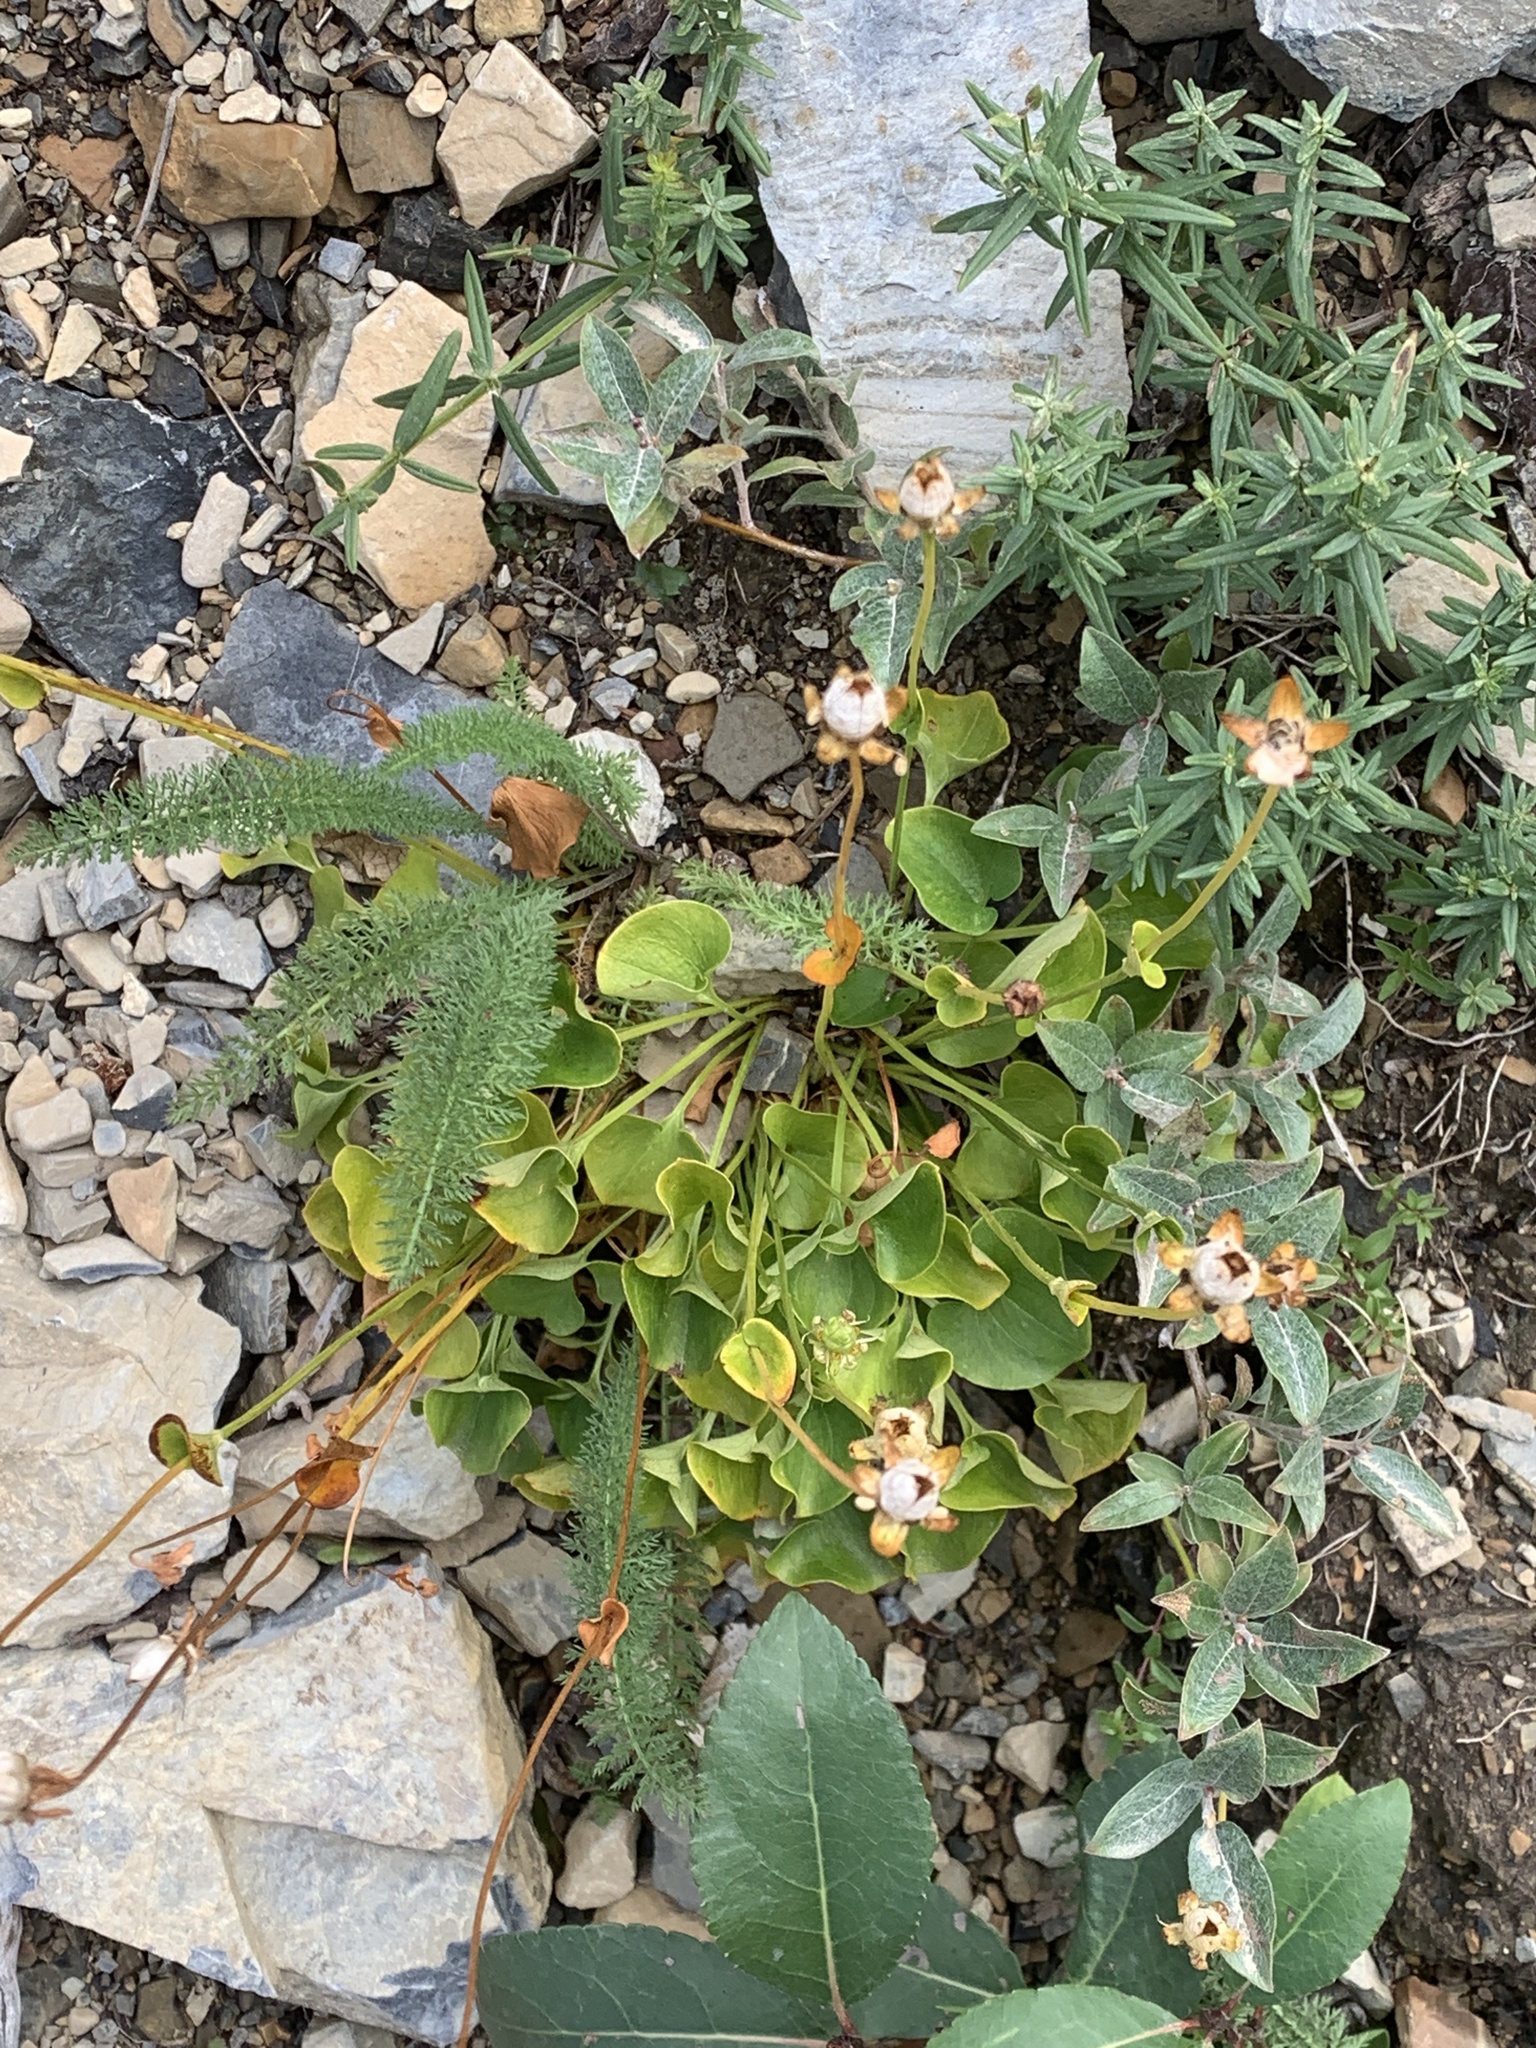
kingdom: Plantae
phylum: Tracheophyta
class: Magnoliopsida
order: Celastrales
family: Parnassiaceae
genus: Parnassia
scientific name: Parnassia fimbriata
